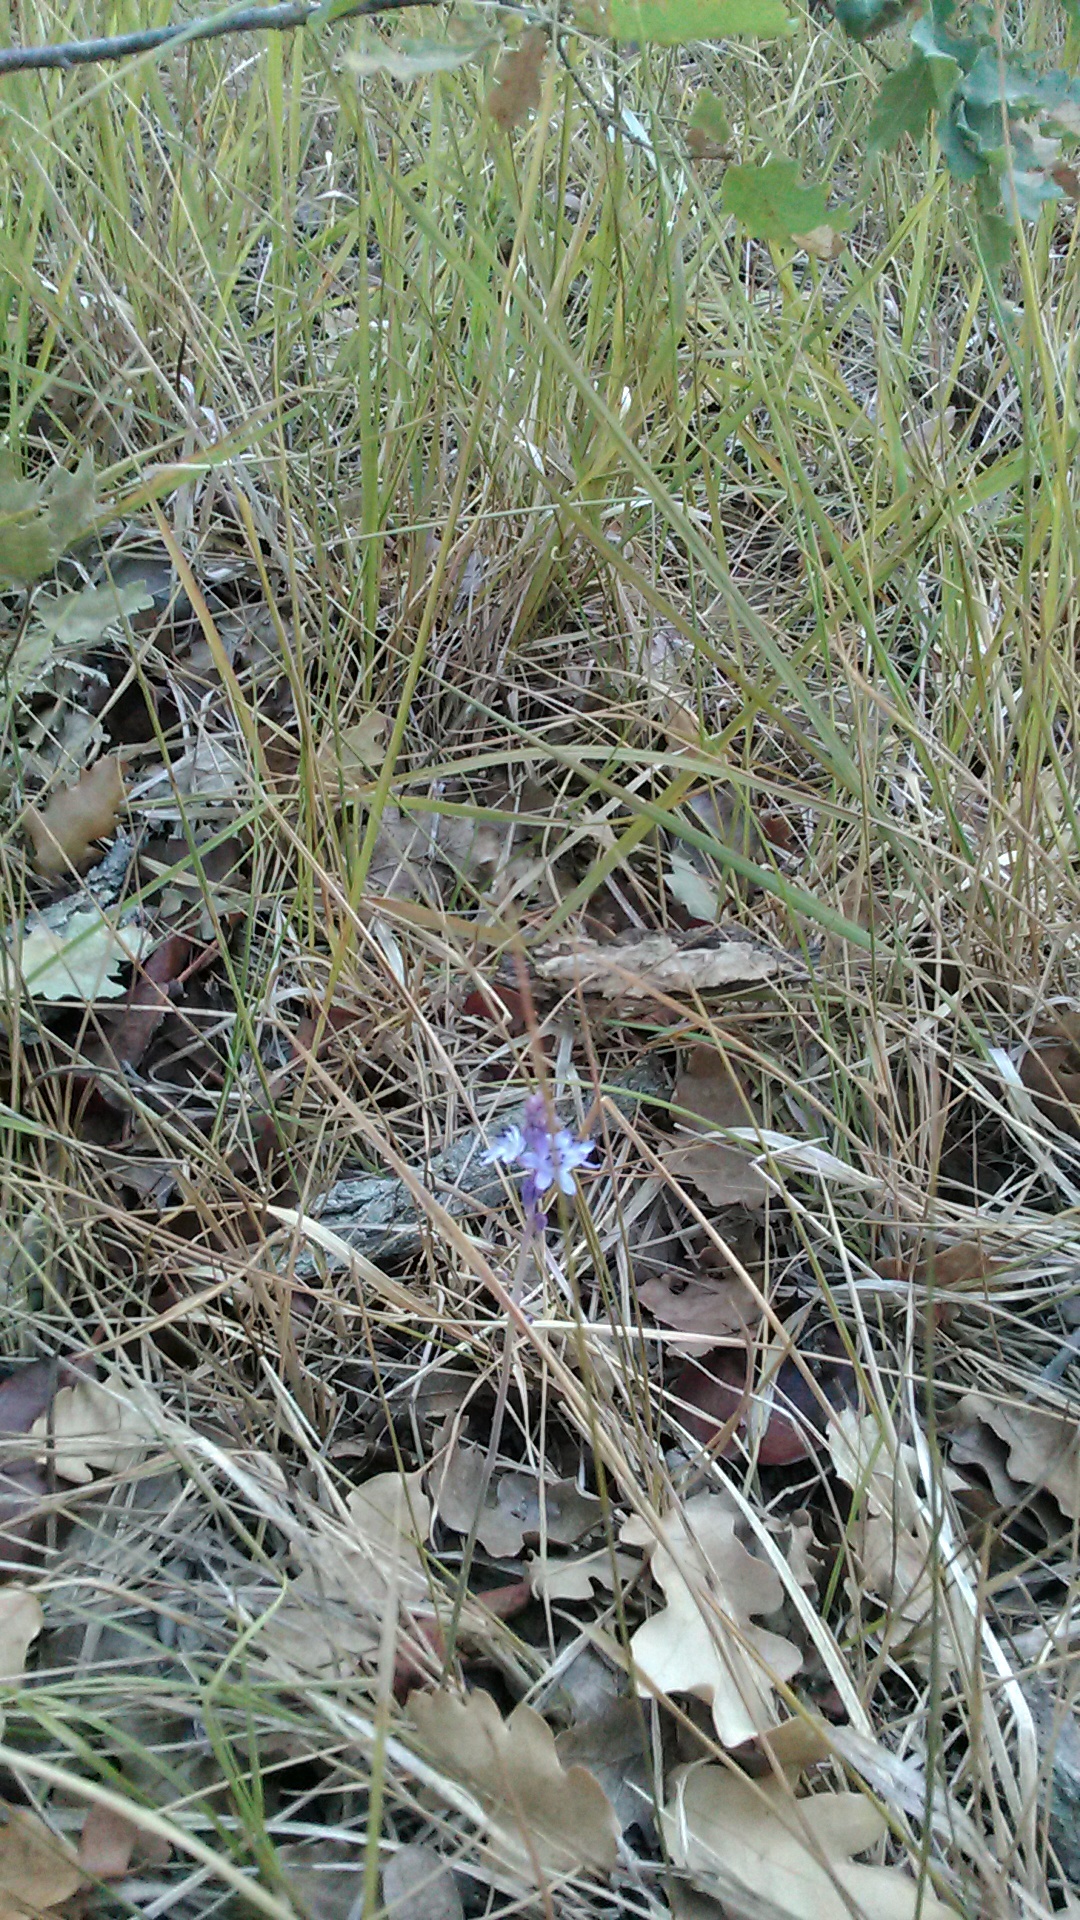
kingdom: Plantae
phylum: Tracheophyta
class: Liliopsida
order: Asparagales
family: Asparagaceae
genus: Prospero
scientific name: Prospero autumnale
